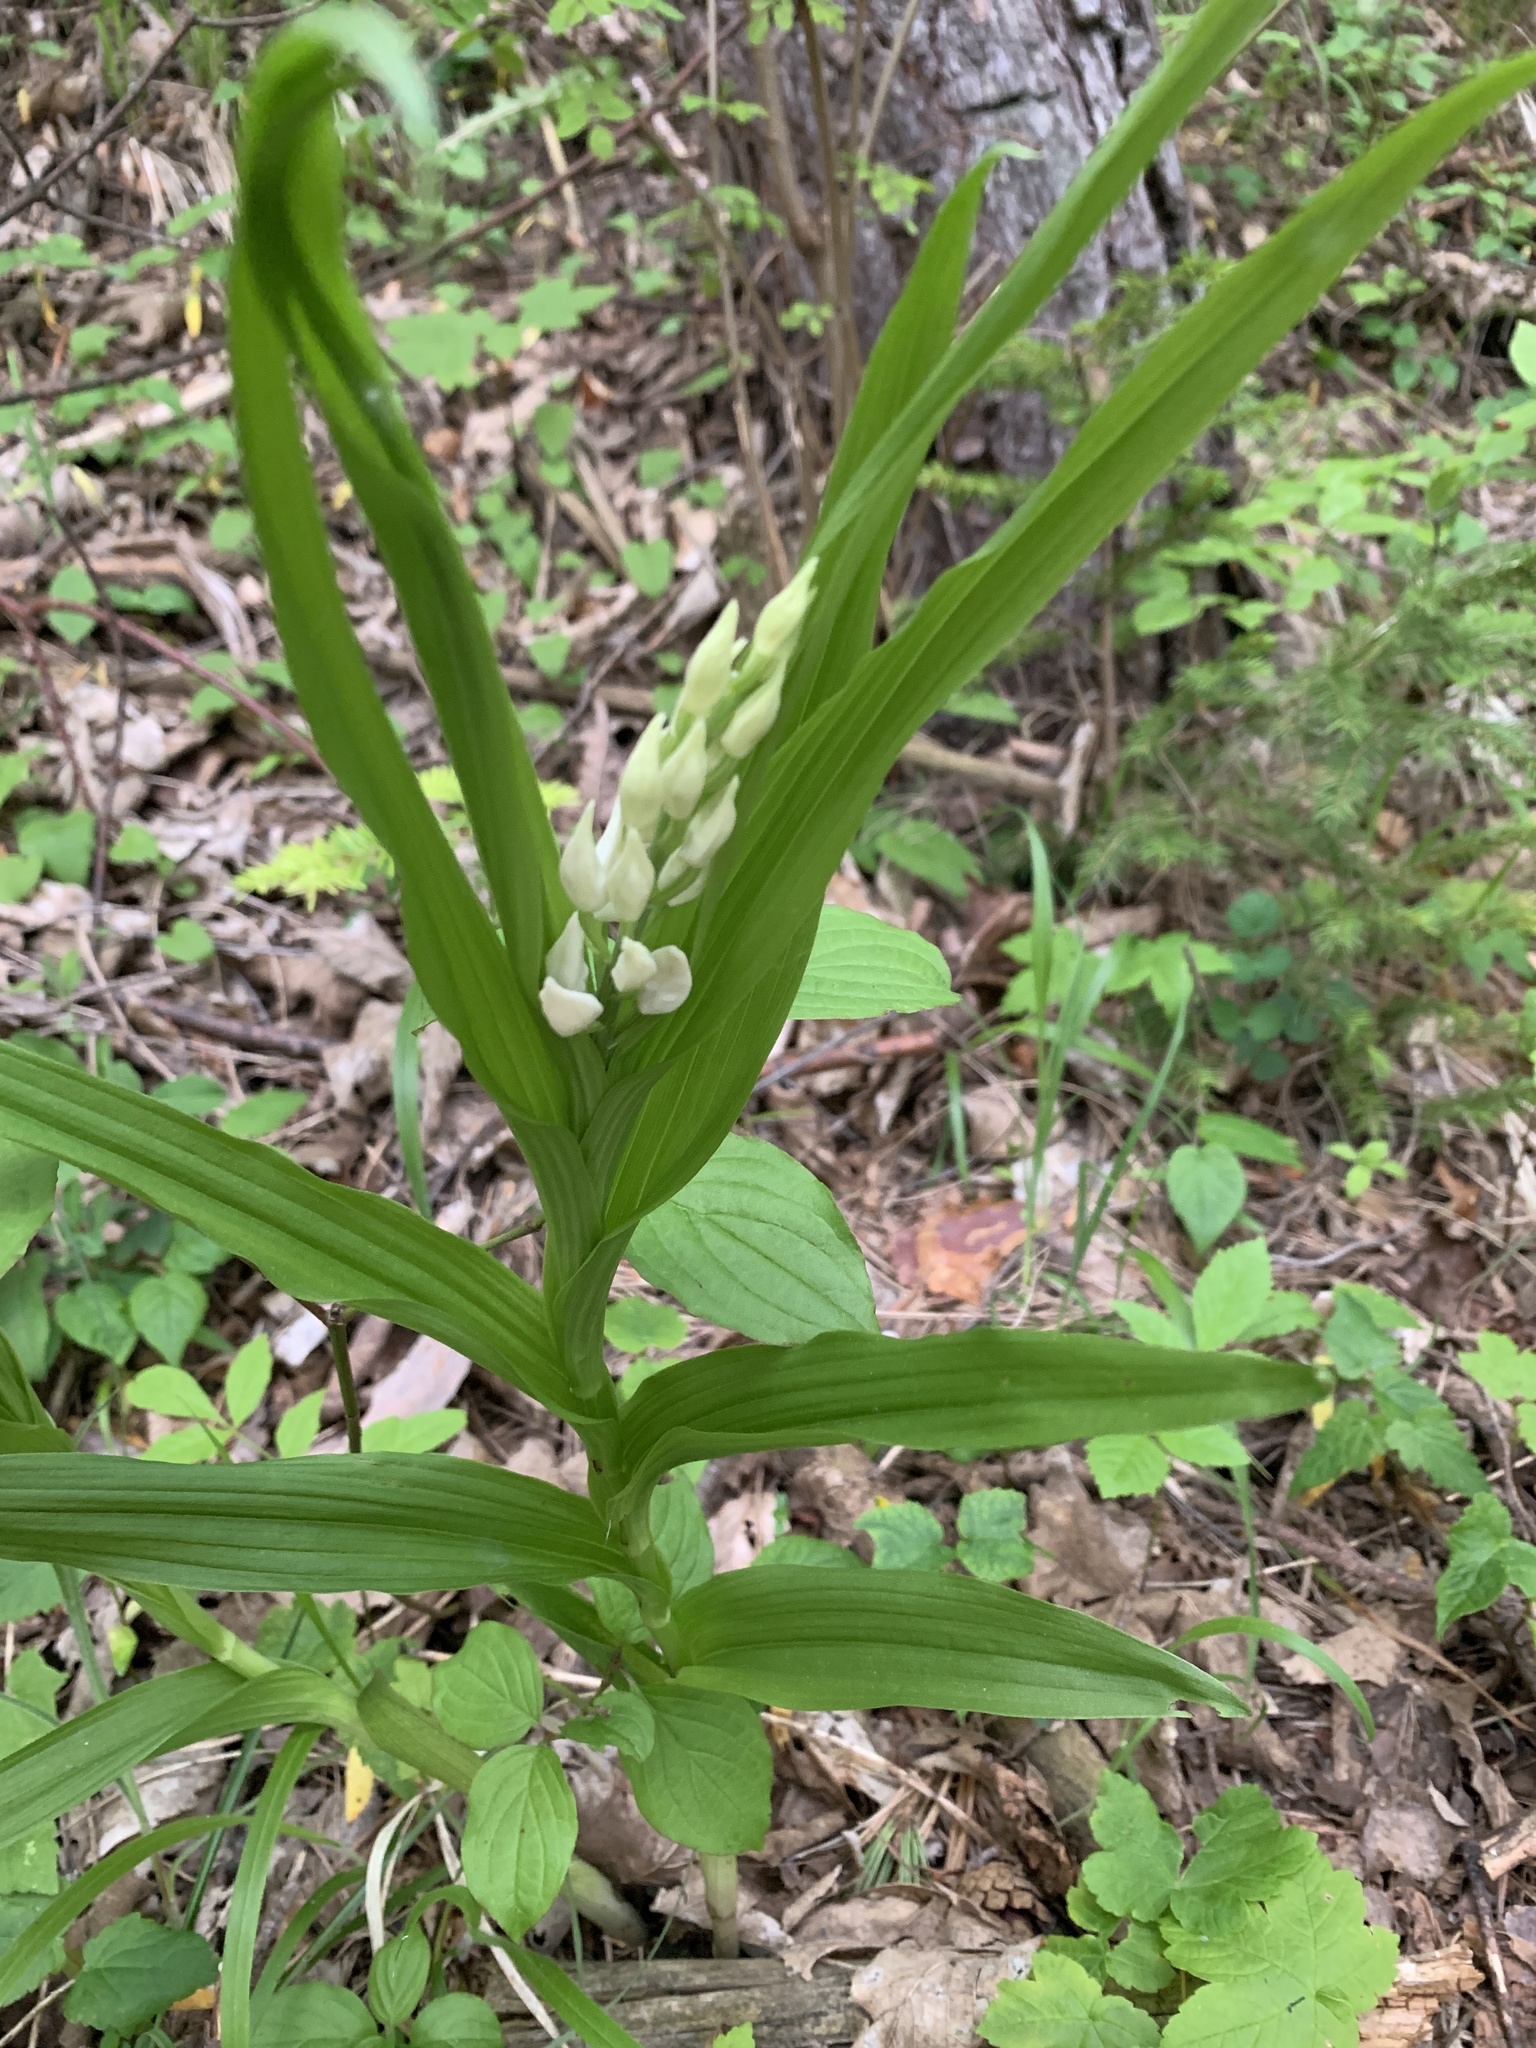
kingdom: Plantae
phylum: Tracheophyta
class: Liliopsida
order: Asparagales
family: Orchidaceae
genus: Cephalanthera
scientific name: Cephalanthera longifolia
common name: Narrow-leaved helleborine
